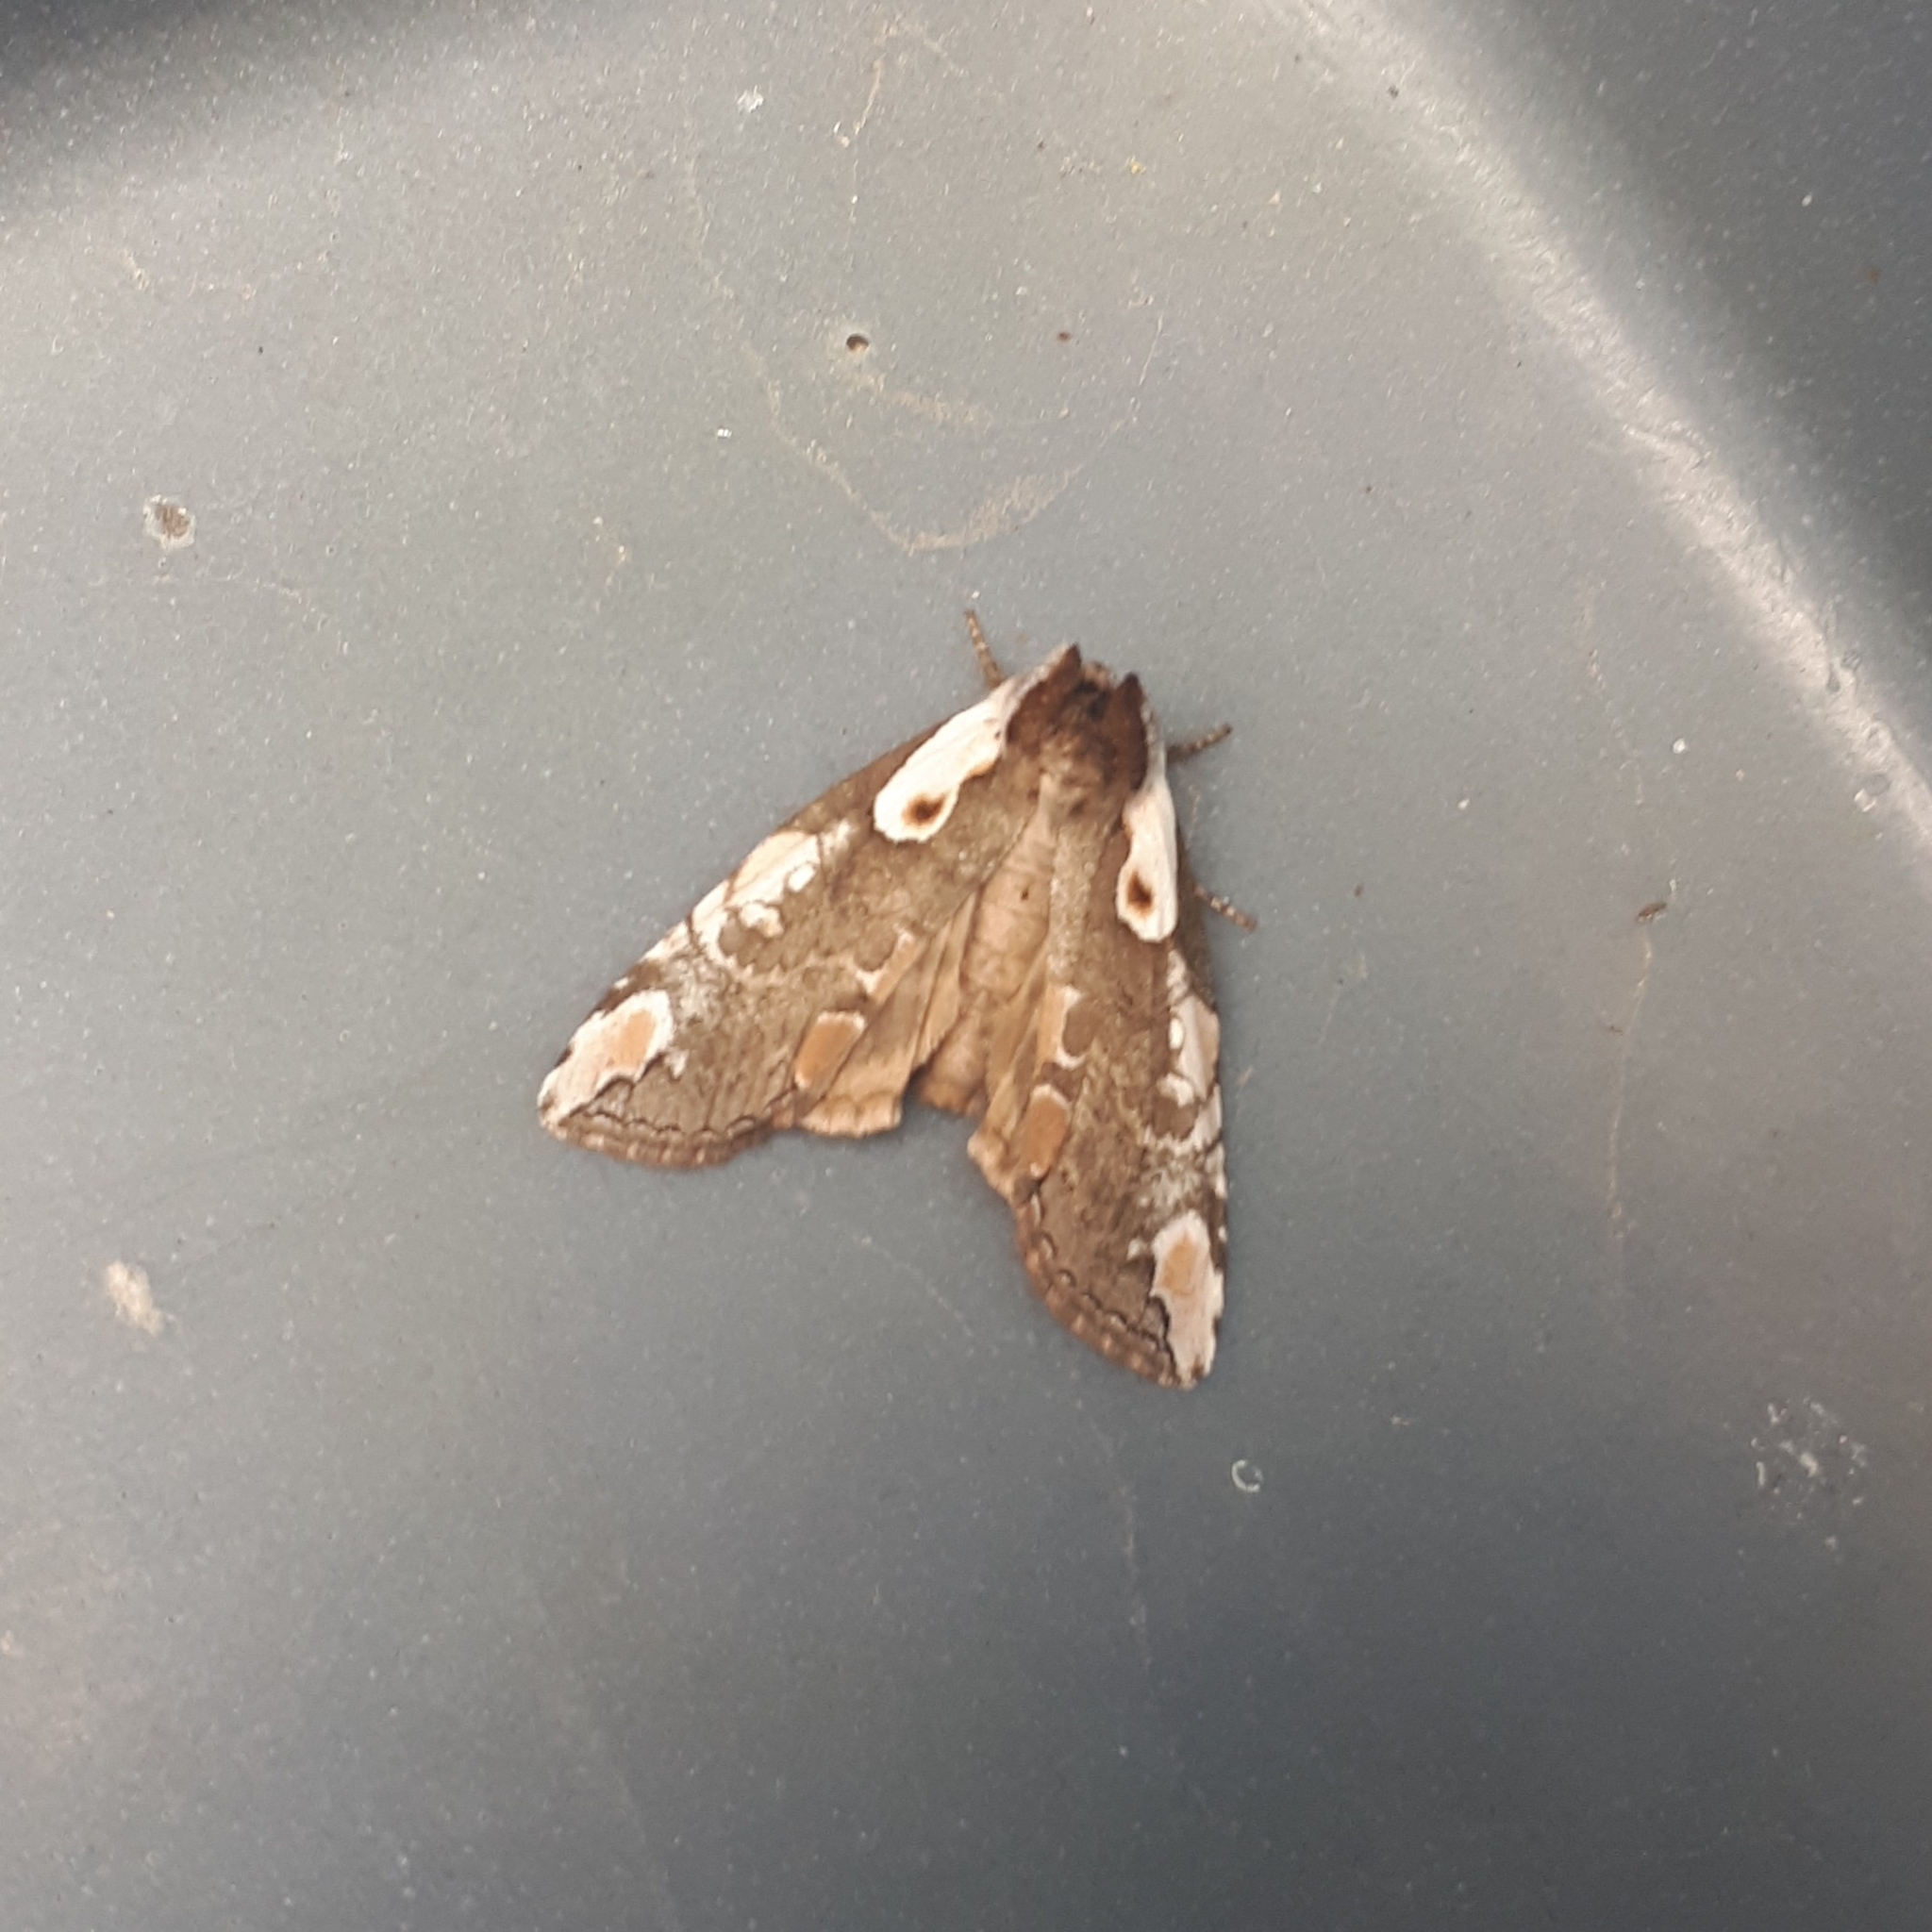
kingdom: Animalia
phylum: Arthropoda
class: Insecta
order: Lepidoptera
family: Drepanidae
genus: Euthyatira
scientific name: Euthyatira pudens
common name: Dogwood thyatirid moth
